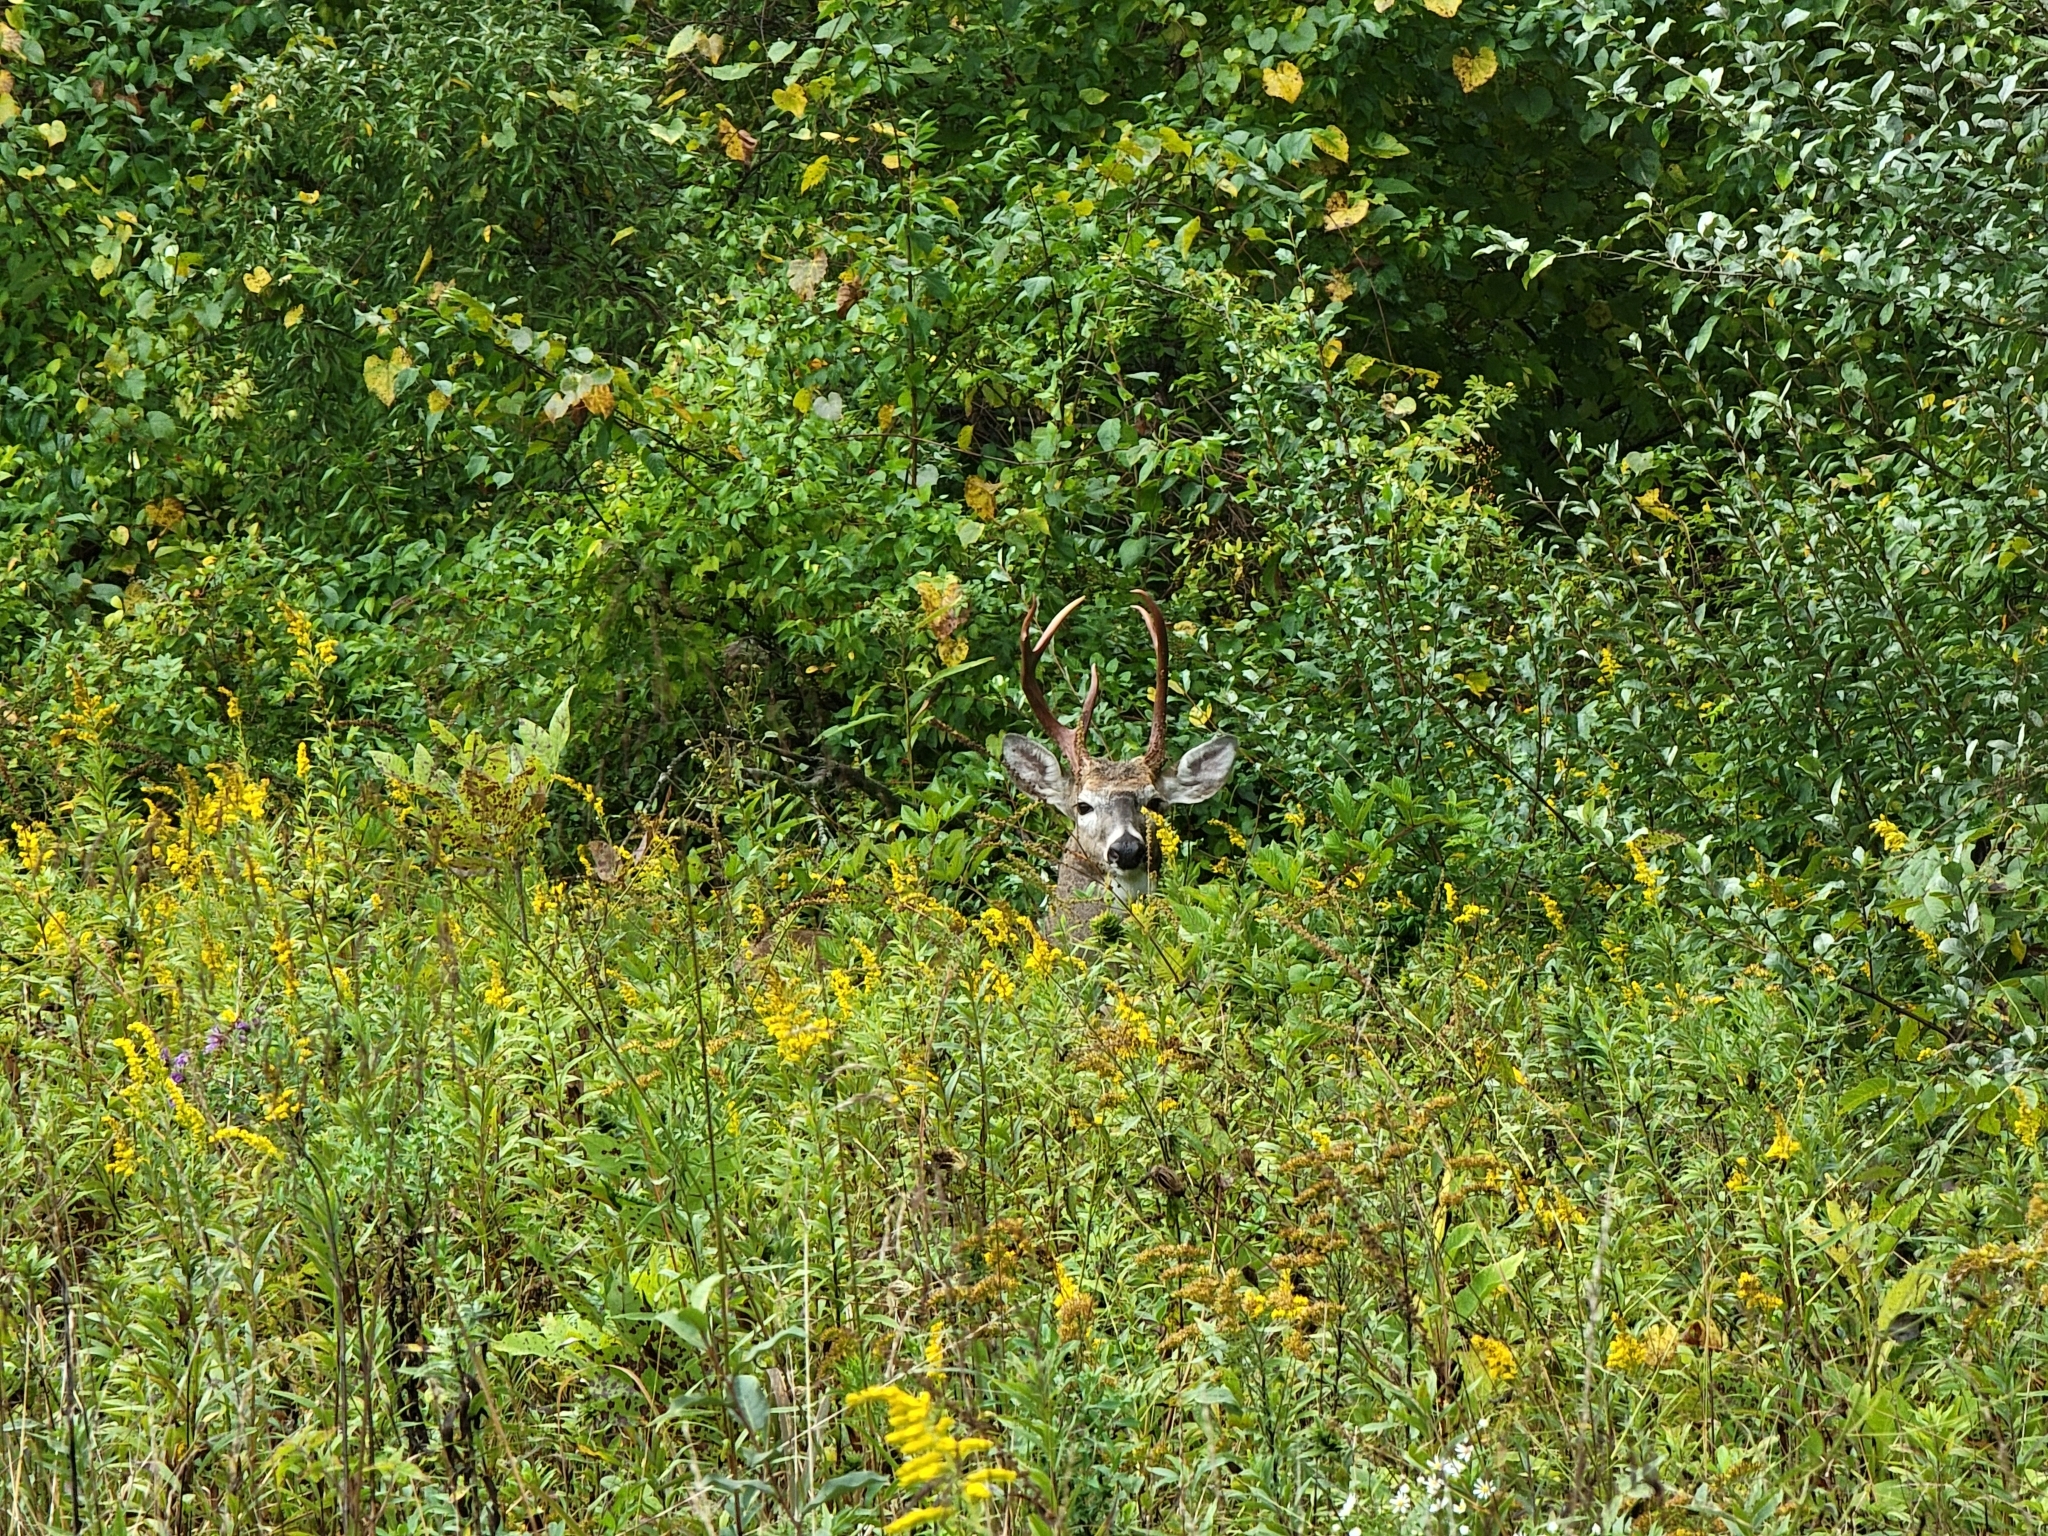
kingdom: Animalia
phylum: Chordata
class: Mammalia
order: Artiodactyla
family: Cervidae
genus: Odocoileus
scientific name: Odocoileus virginianus
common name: White-tailed deer
